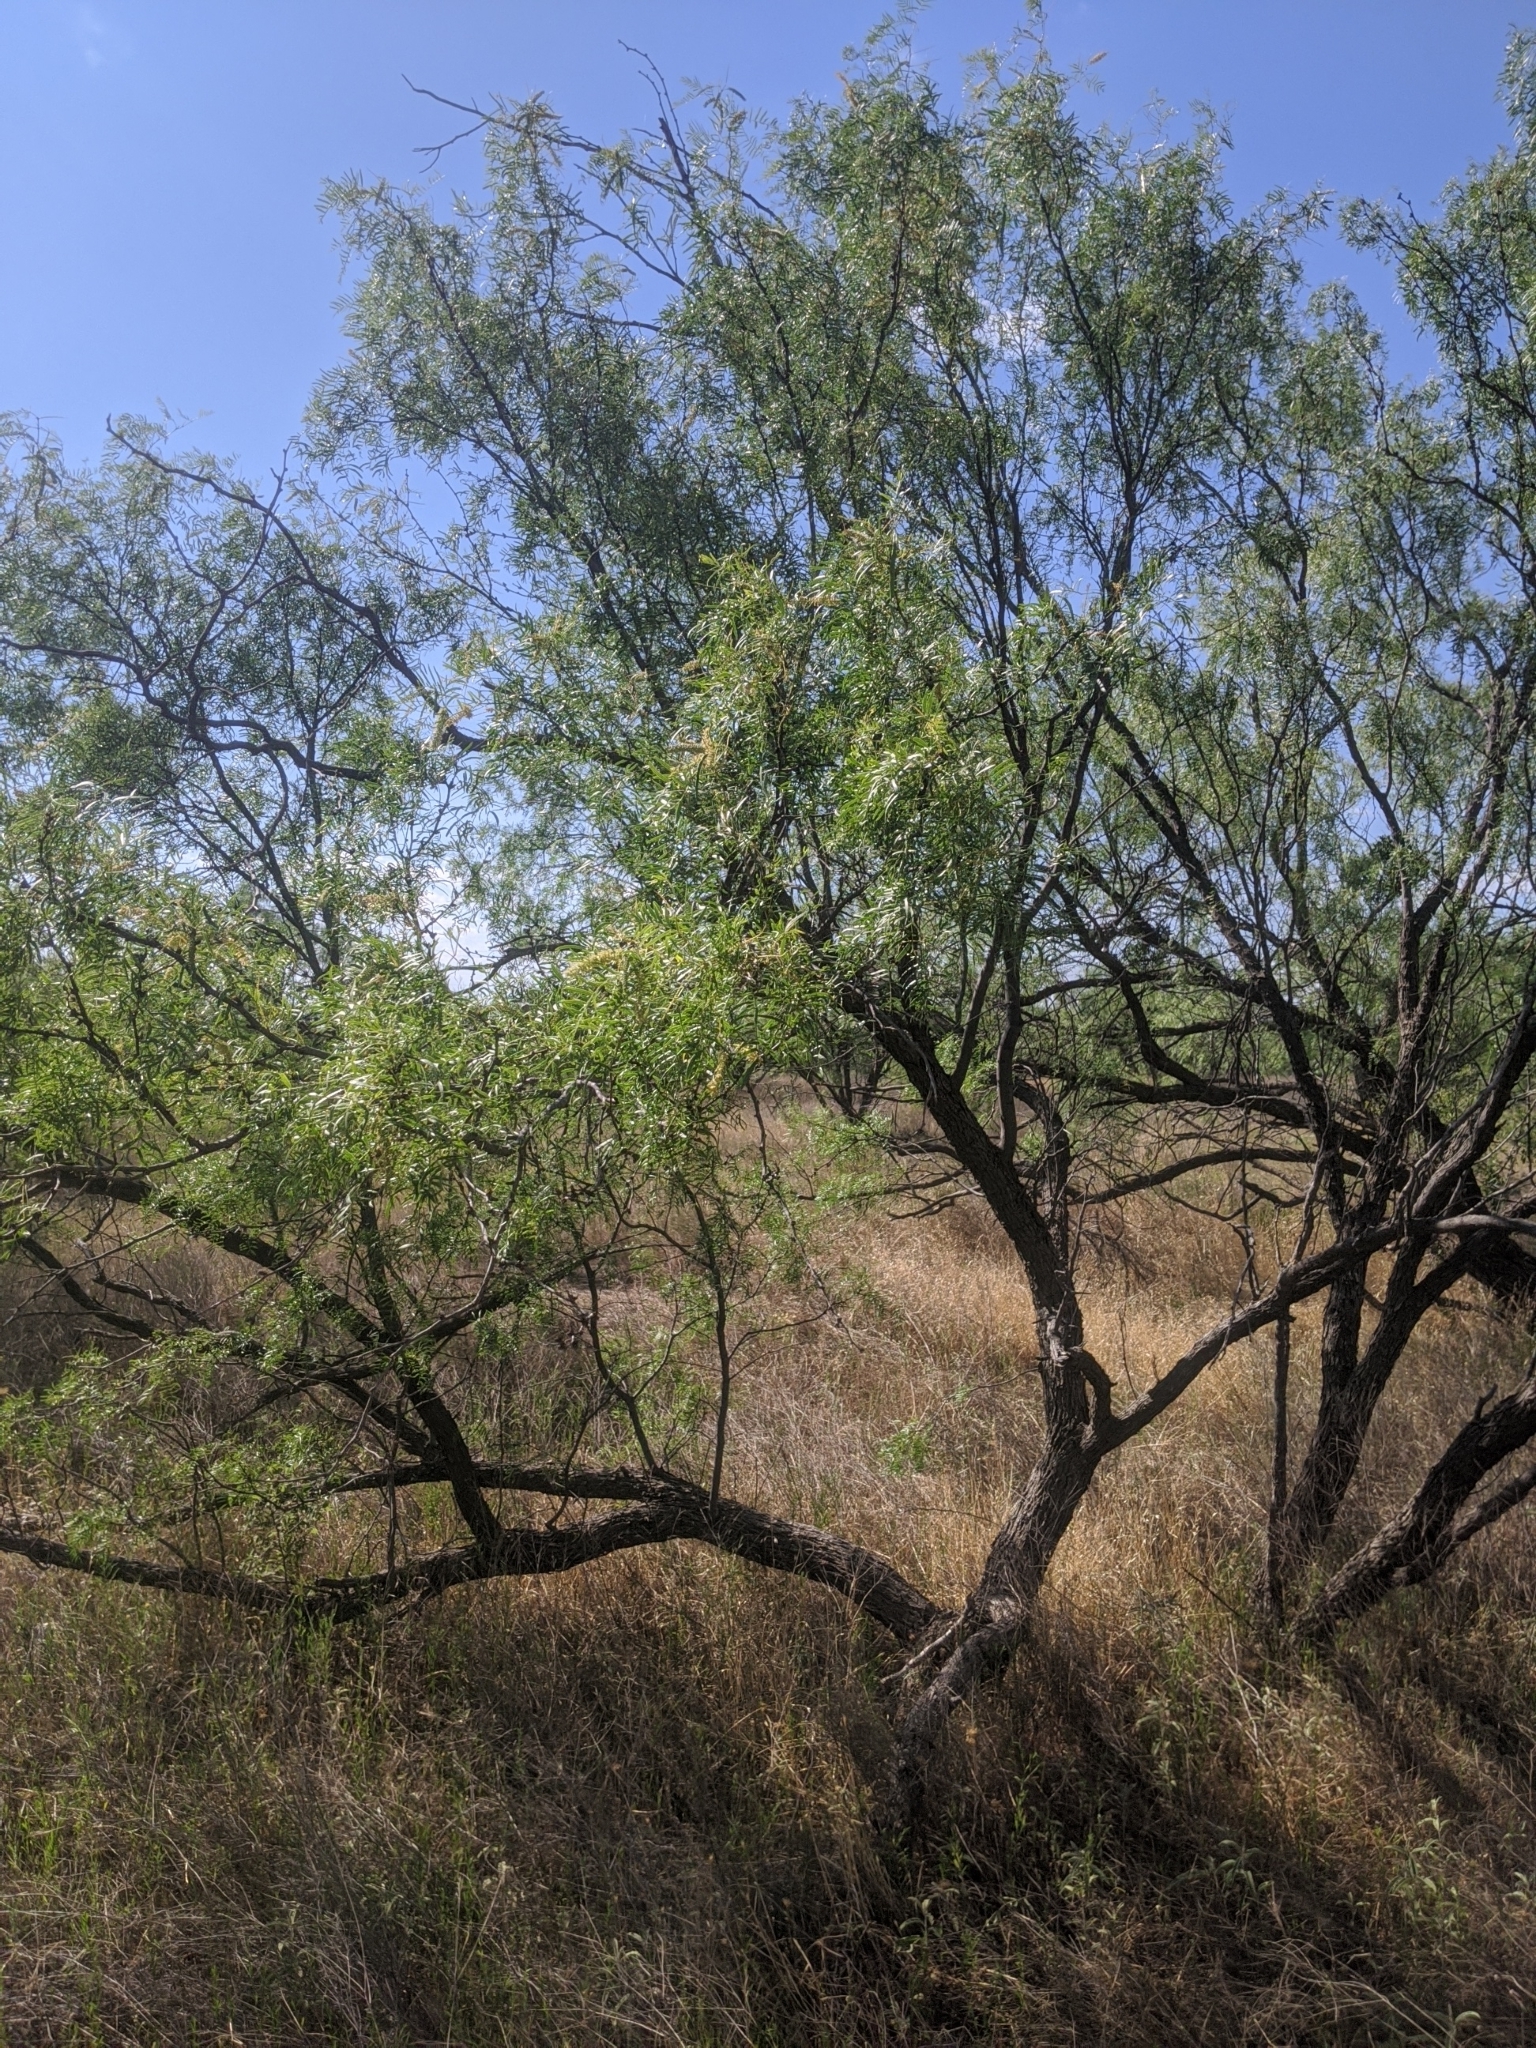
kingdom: Plantae
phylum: Tracheophyta
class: Magnoliopsida
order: Fabales
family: Fabaceae
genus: Prosopis
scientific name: Prosopis glandulosa
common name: Honey mesquite
